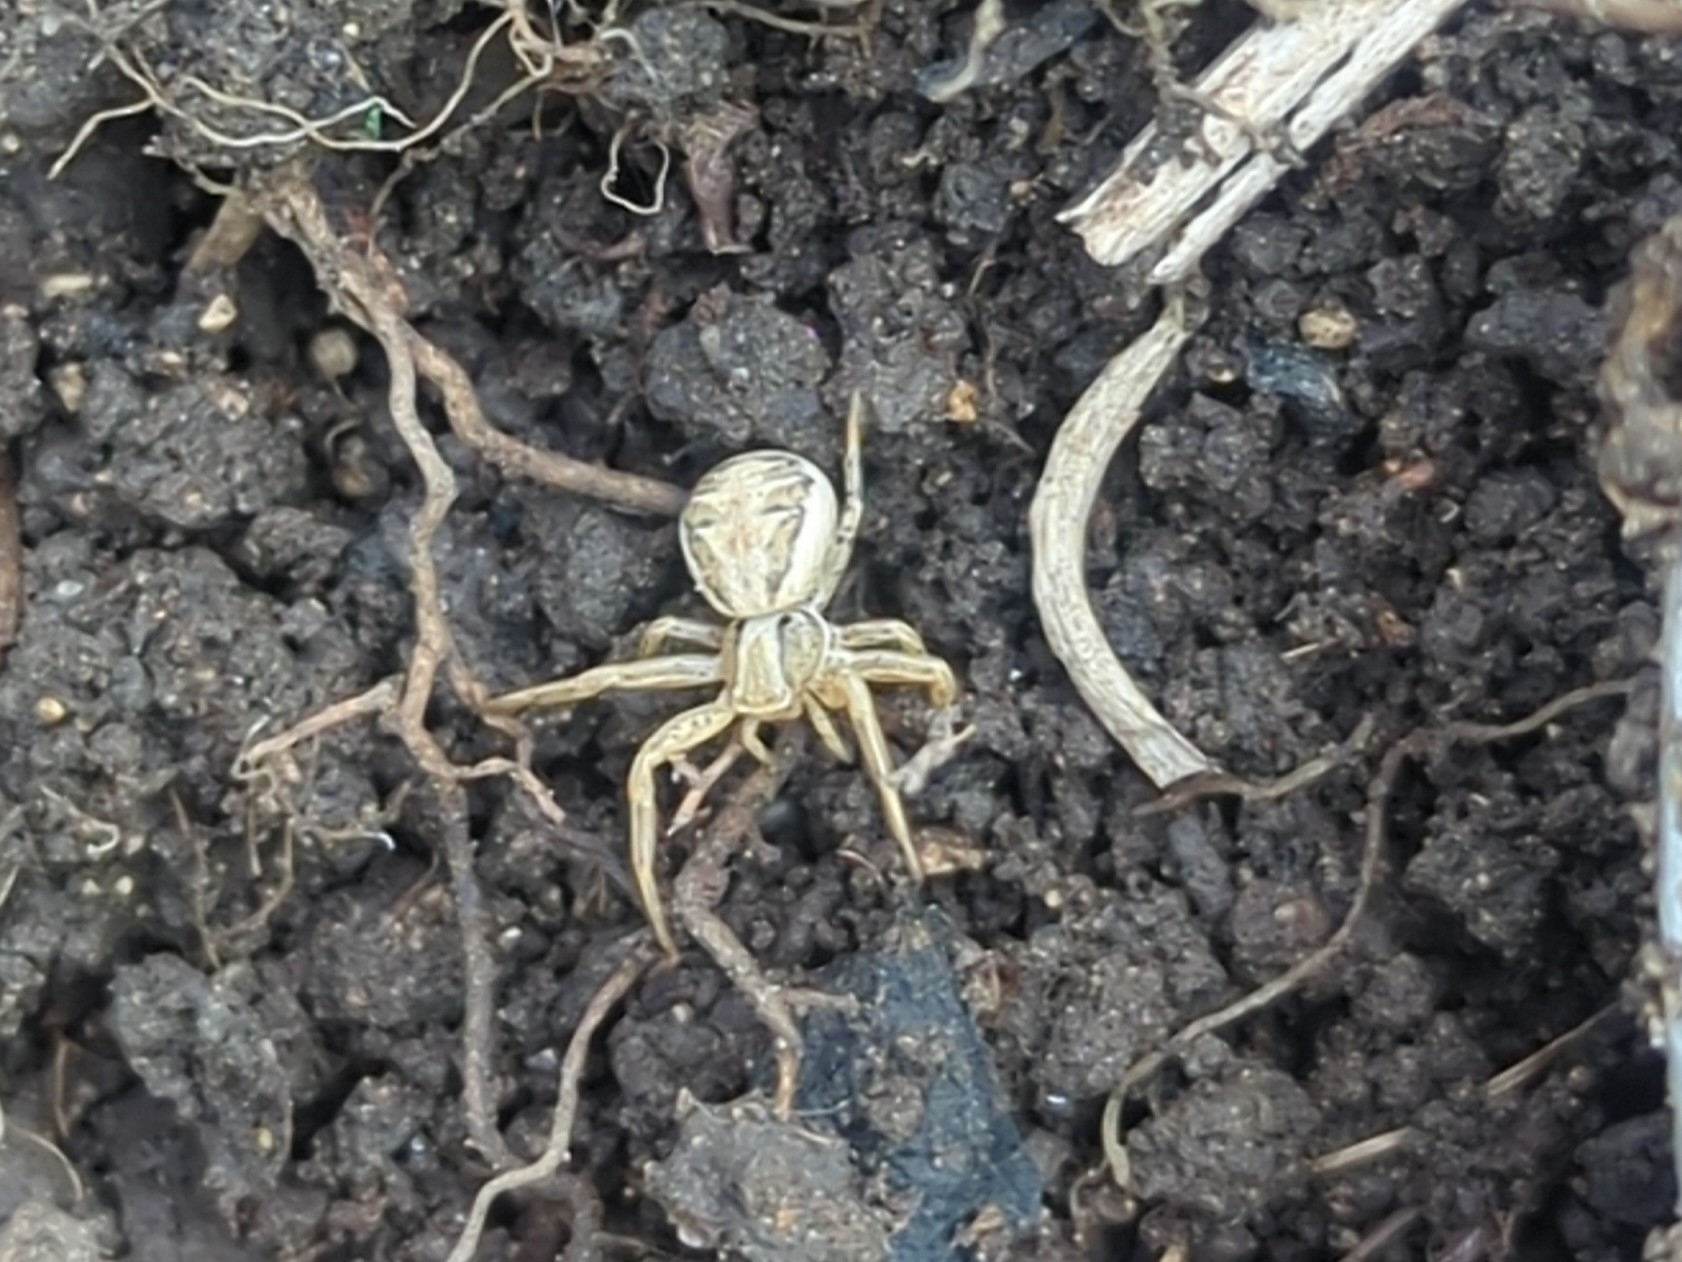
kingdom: Animalia
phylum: Arthropoda
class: Arachnida
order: Araneae
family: Thomisidae
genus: Xysticus
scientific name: Xysticus
